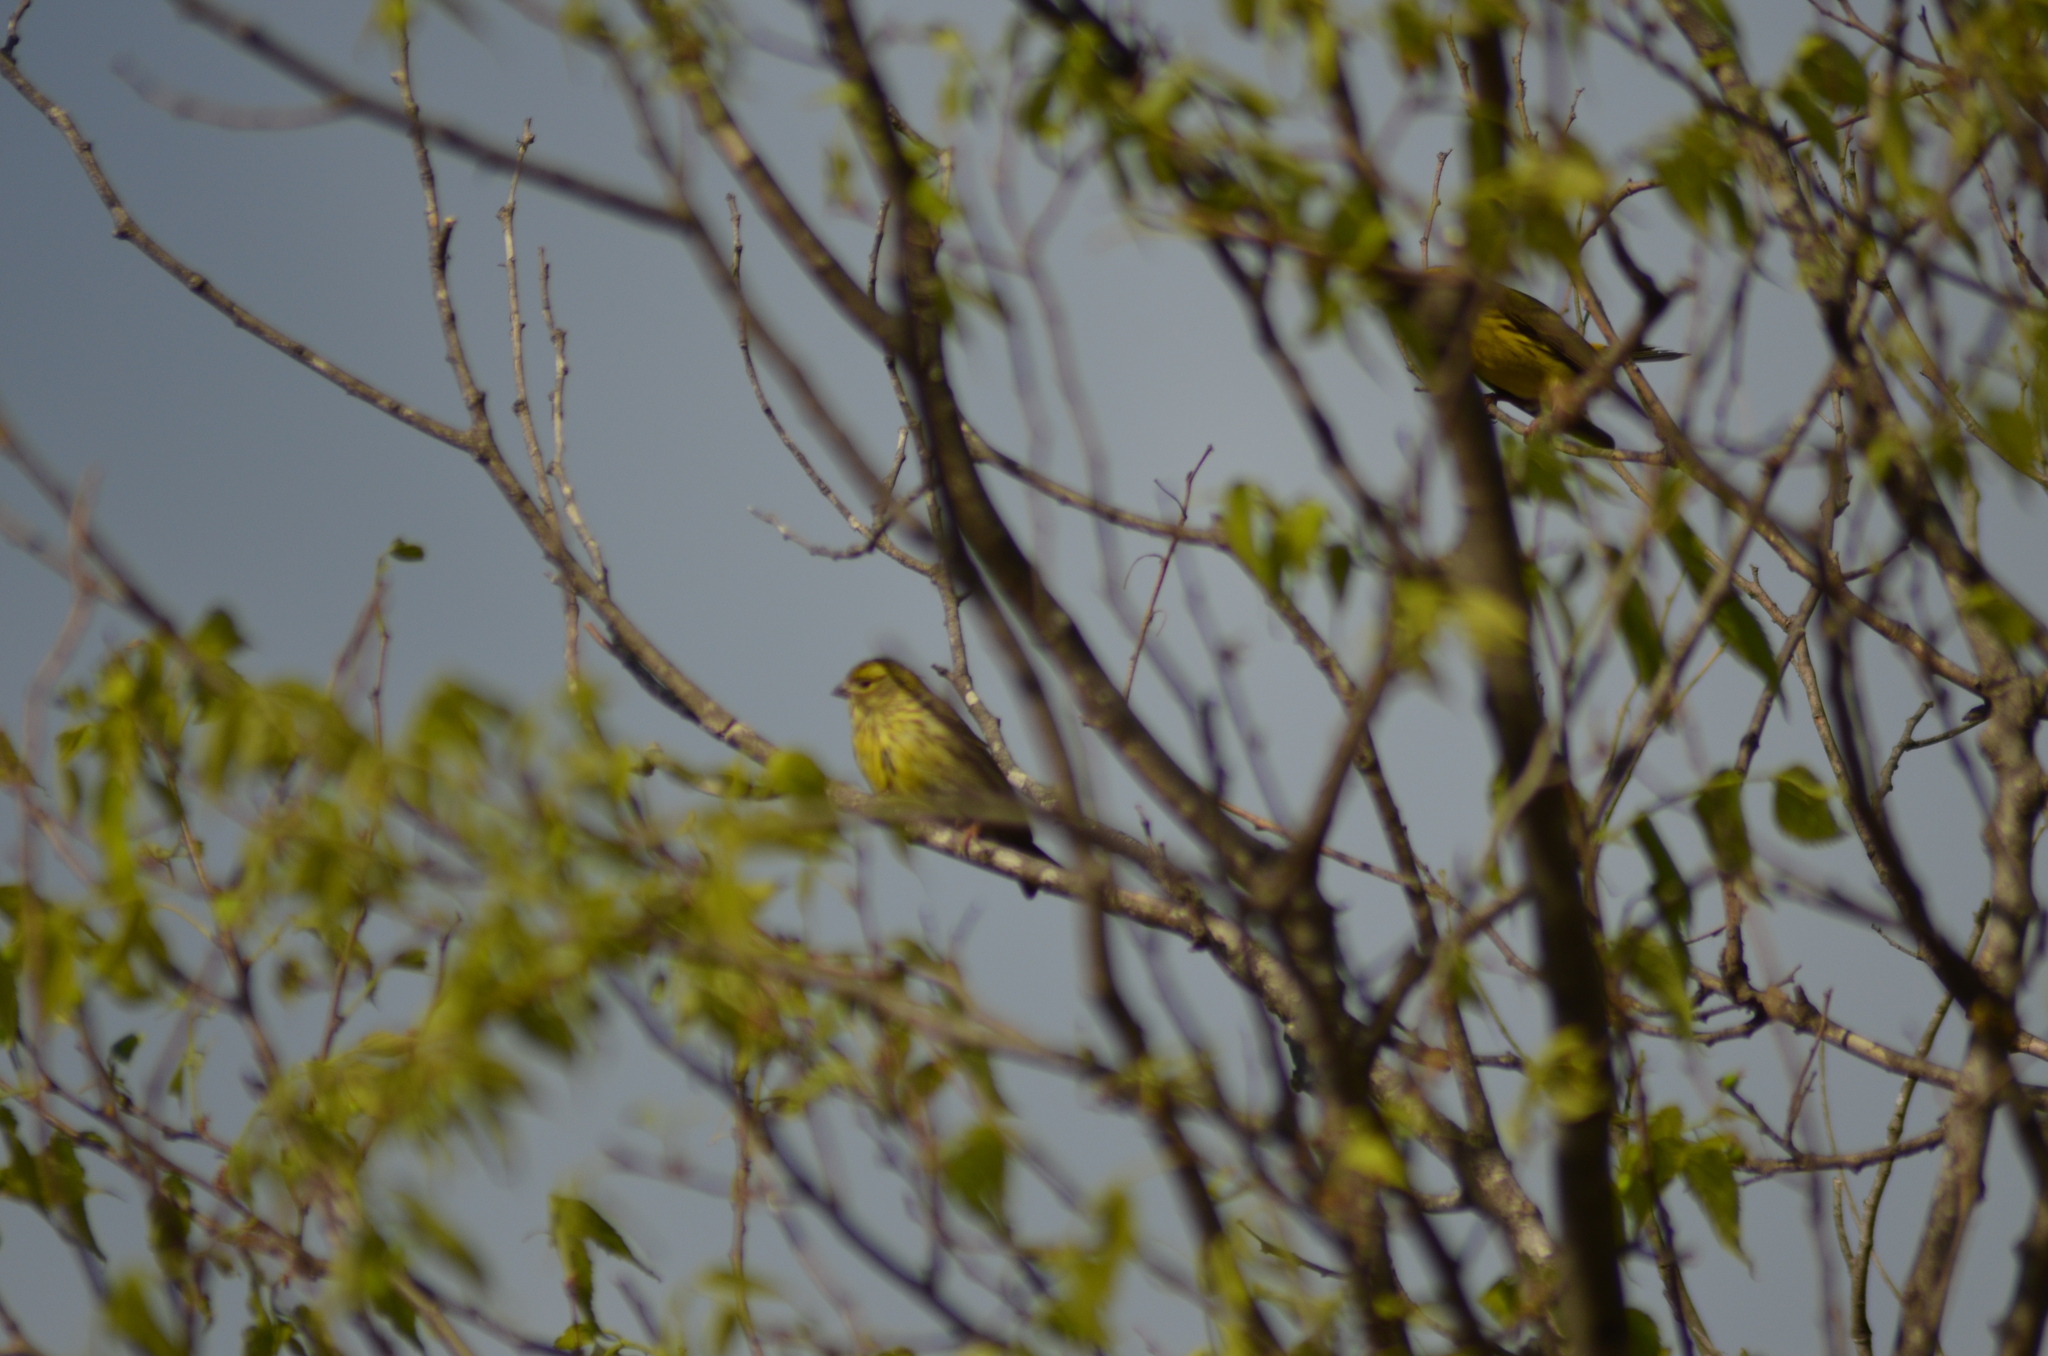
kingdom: Animalia
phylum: Chordata
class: Aves
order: Passeriformes
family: Fringillidae
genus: Serinus
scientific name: Serinus serinus
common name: European serin
